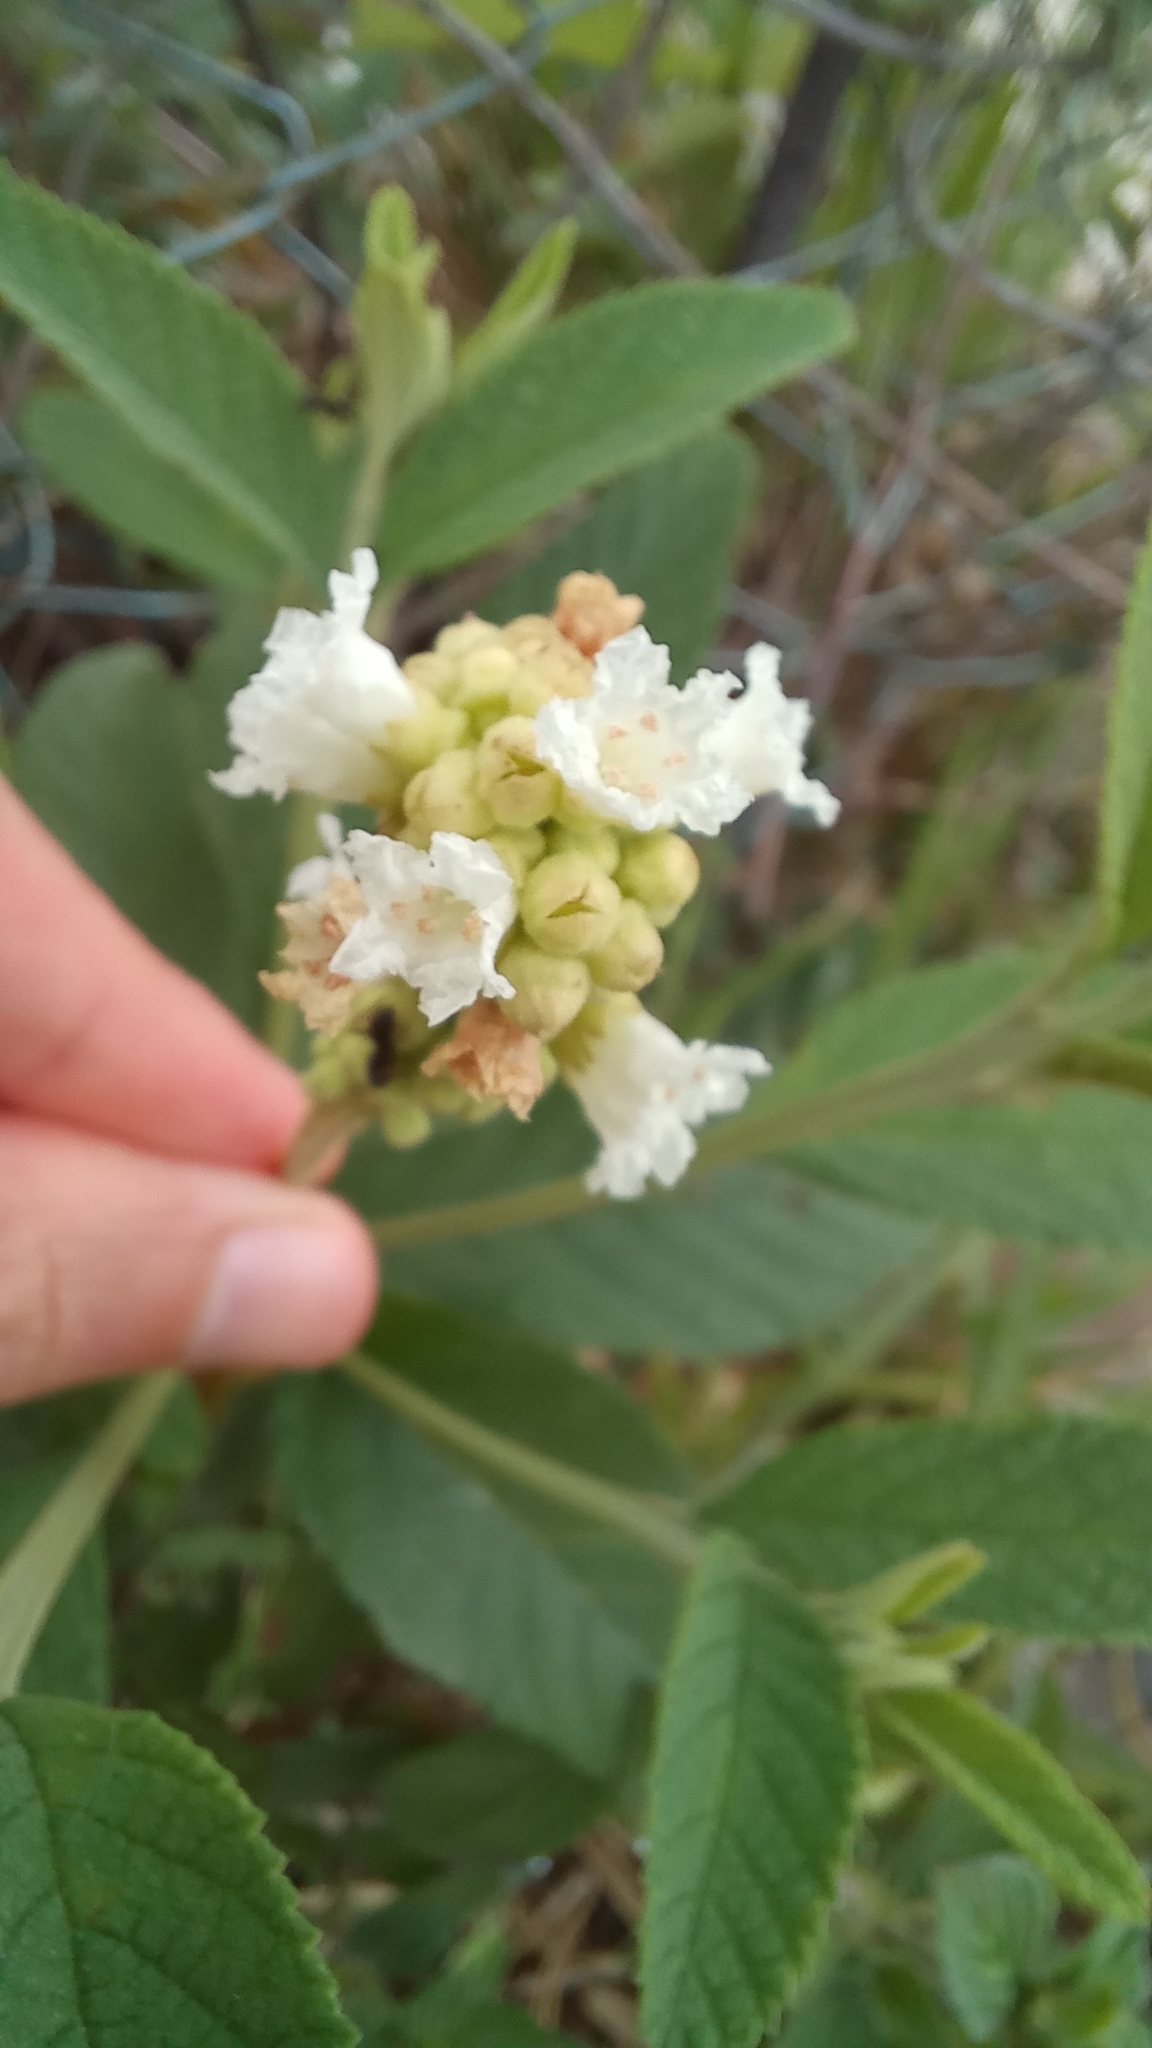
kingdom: Plantae
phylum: Tracheophyta
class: Magnoliopsida
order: Boraginales
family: Cordiaceae
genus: Varronia
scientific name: Varronia curassavica
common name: Black sage
